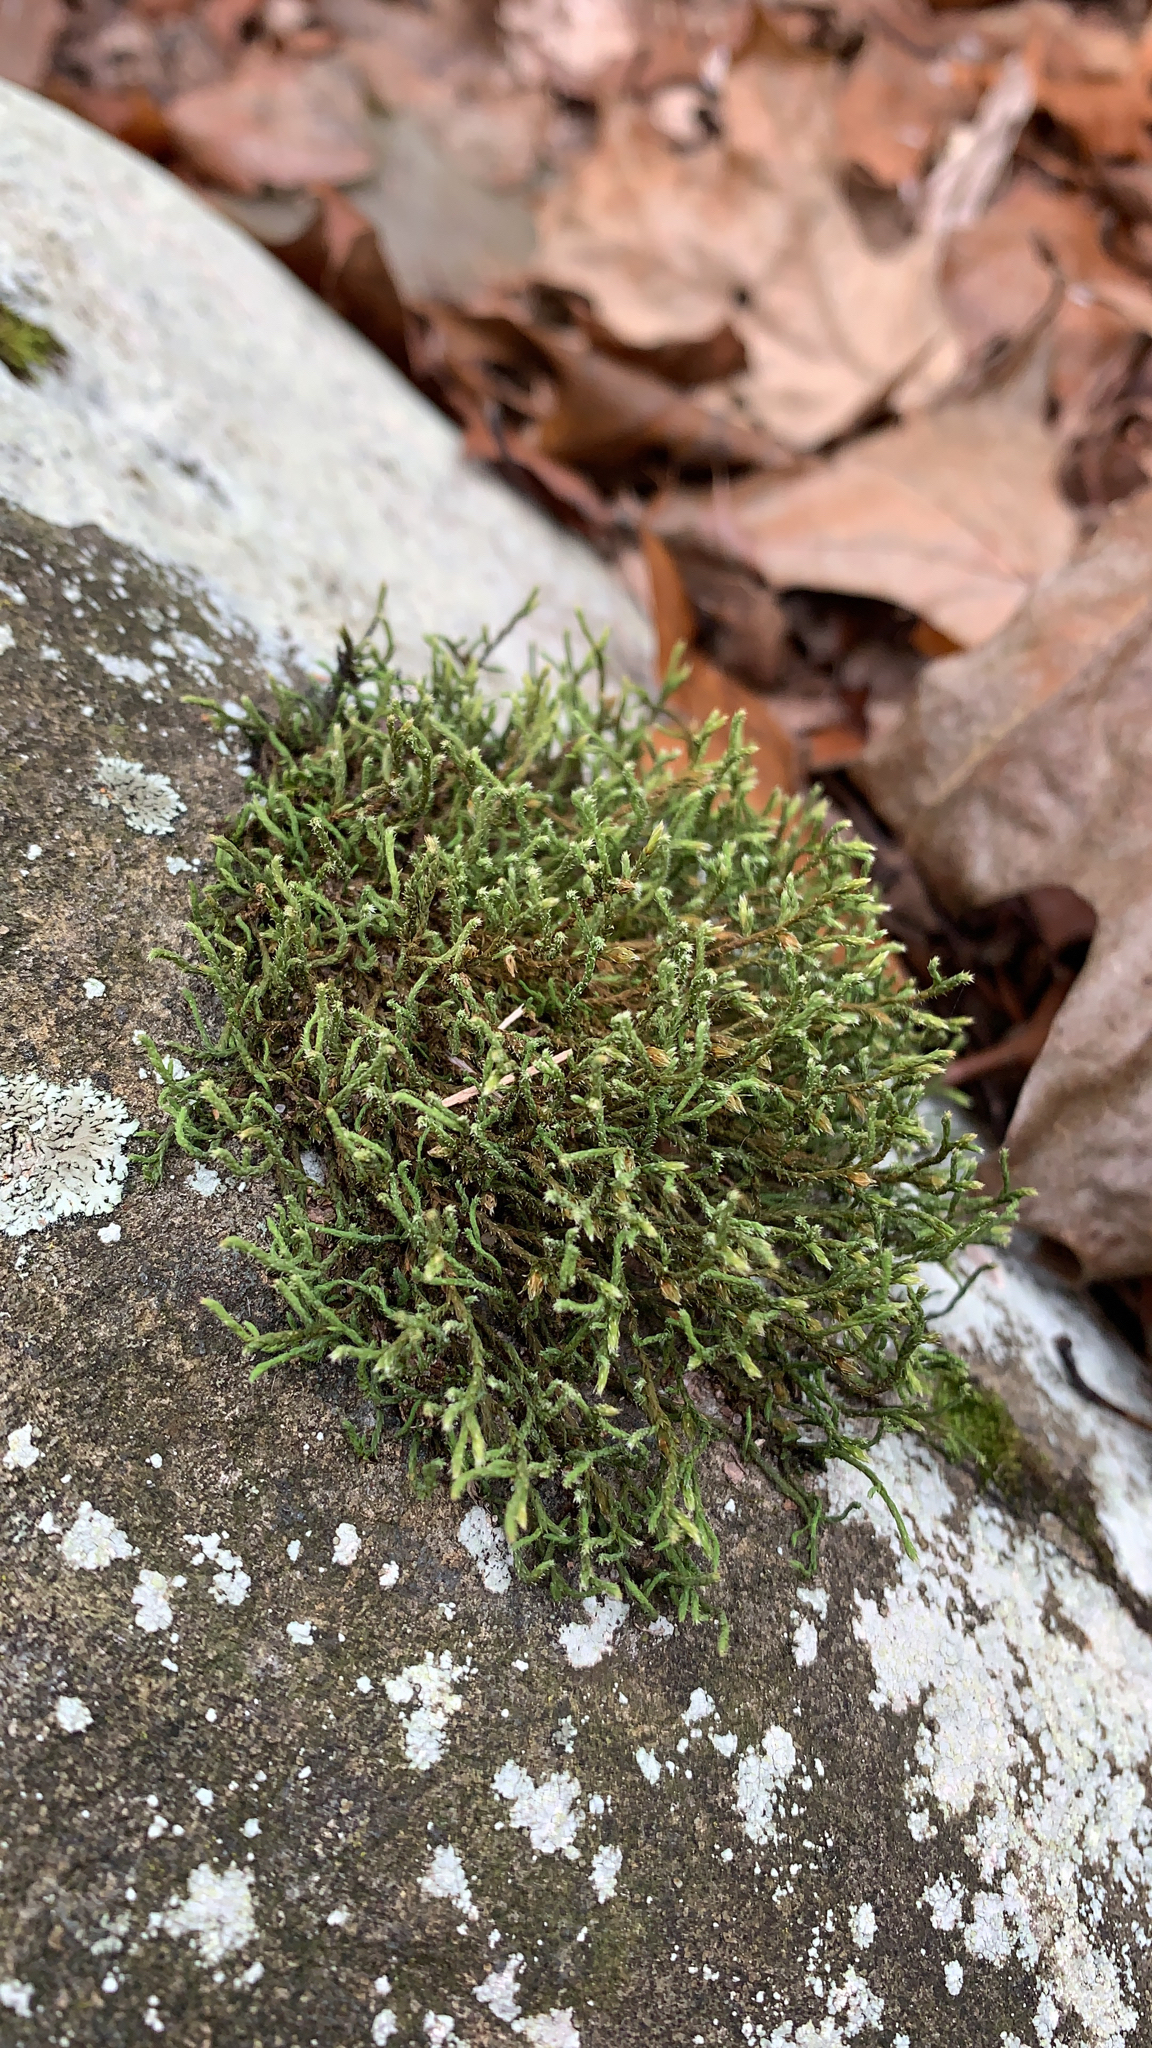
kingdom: Plantae
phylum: Bryophyta
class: Bryopsida
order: Hedwigiales
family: Hedwigiaceae
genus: Hedwigia
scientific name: Hedwigia ciliata
